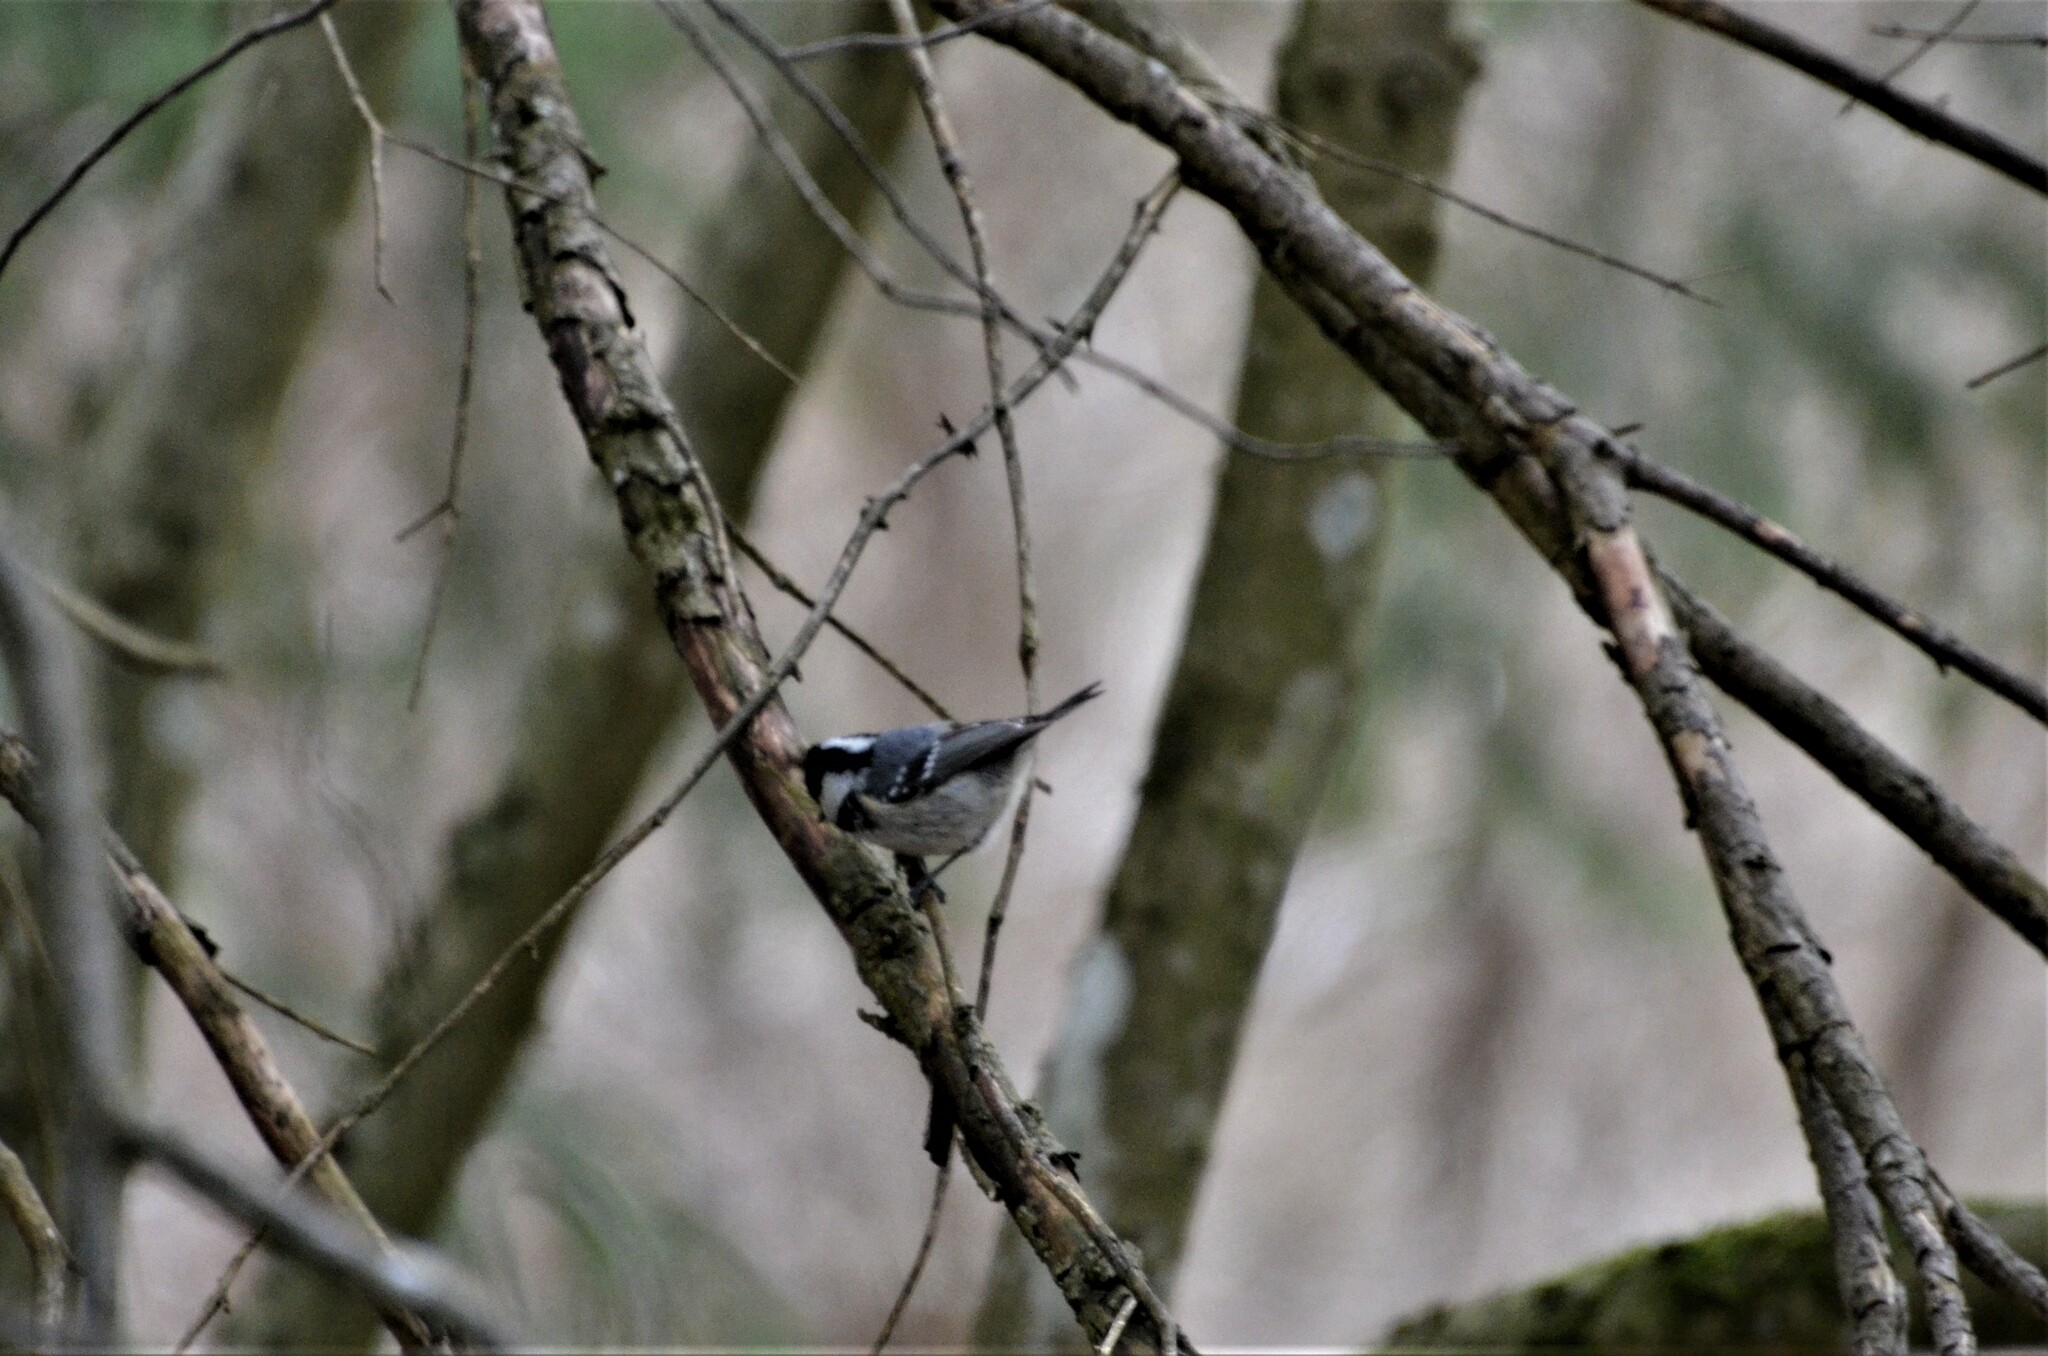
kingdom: Animalia
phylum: Chordata
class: Aves
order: Passeriformes
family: Paridae
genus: Periparus
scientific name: Periparus ater
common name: Coal tit
